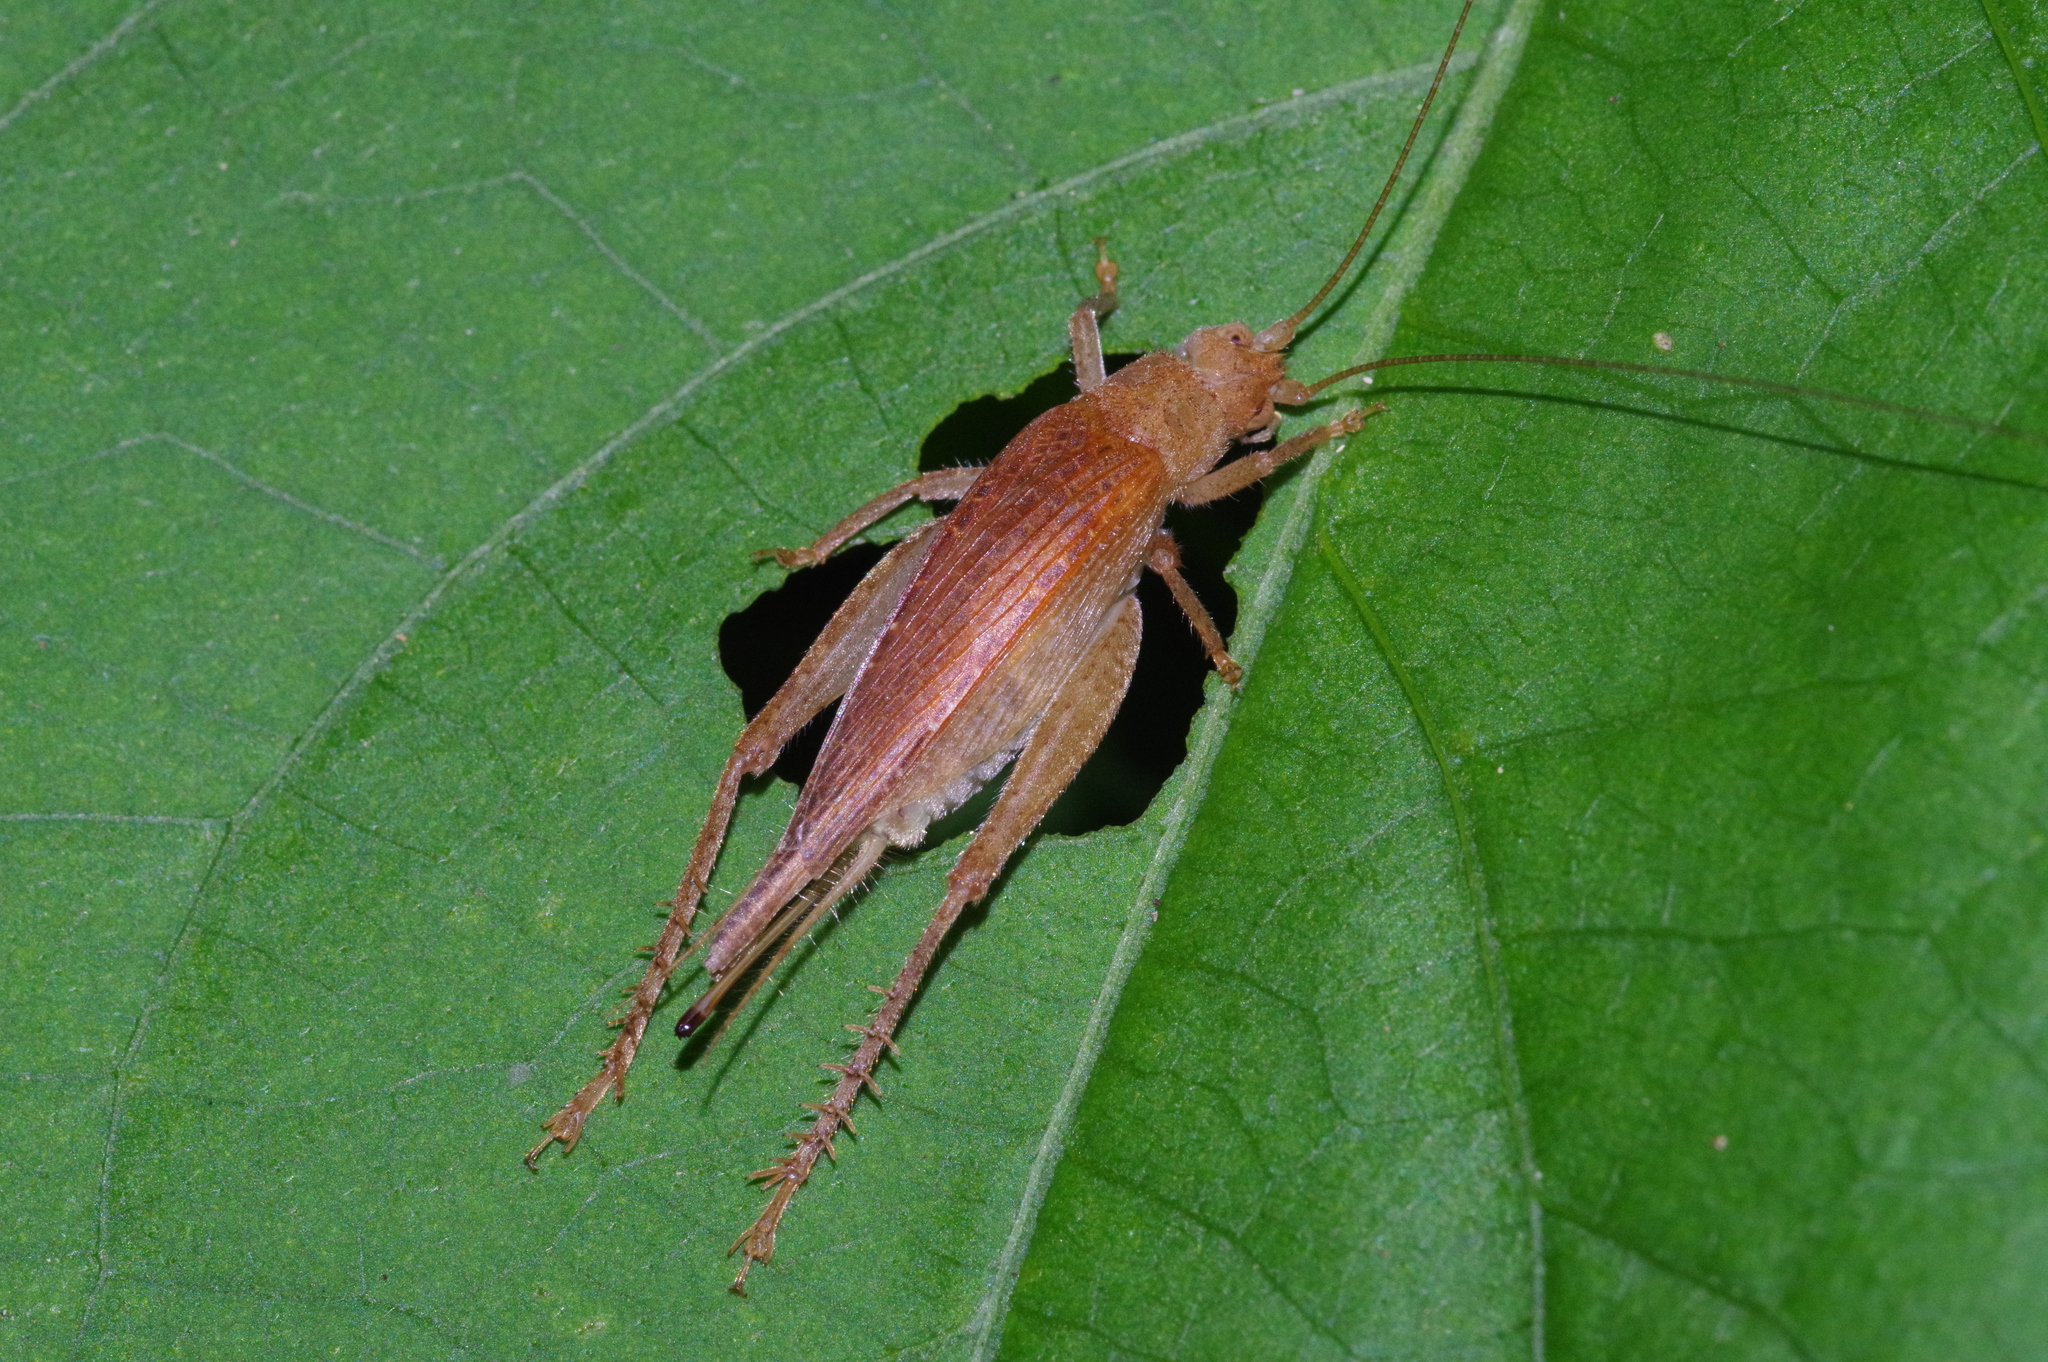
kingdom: Animalia
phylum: Arthropoda
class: Insecta
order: Orthoptera
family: Gryllidae
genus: Aphonoides
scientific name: Aphonoides rufescens
